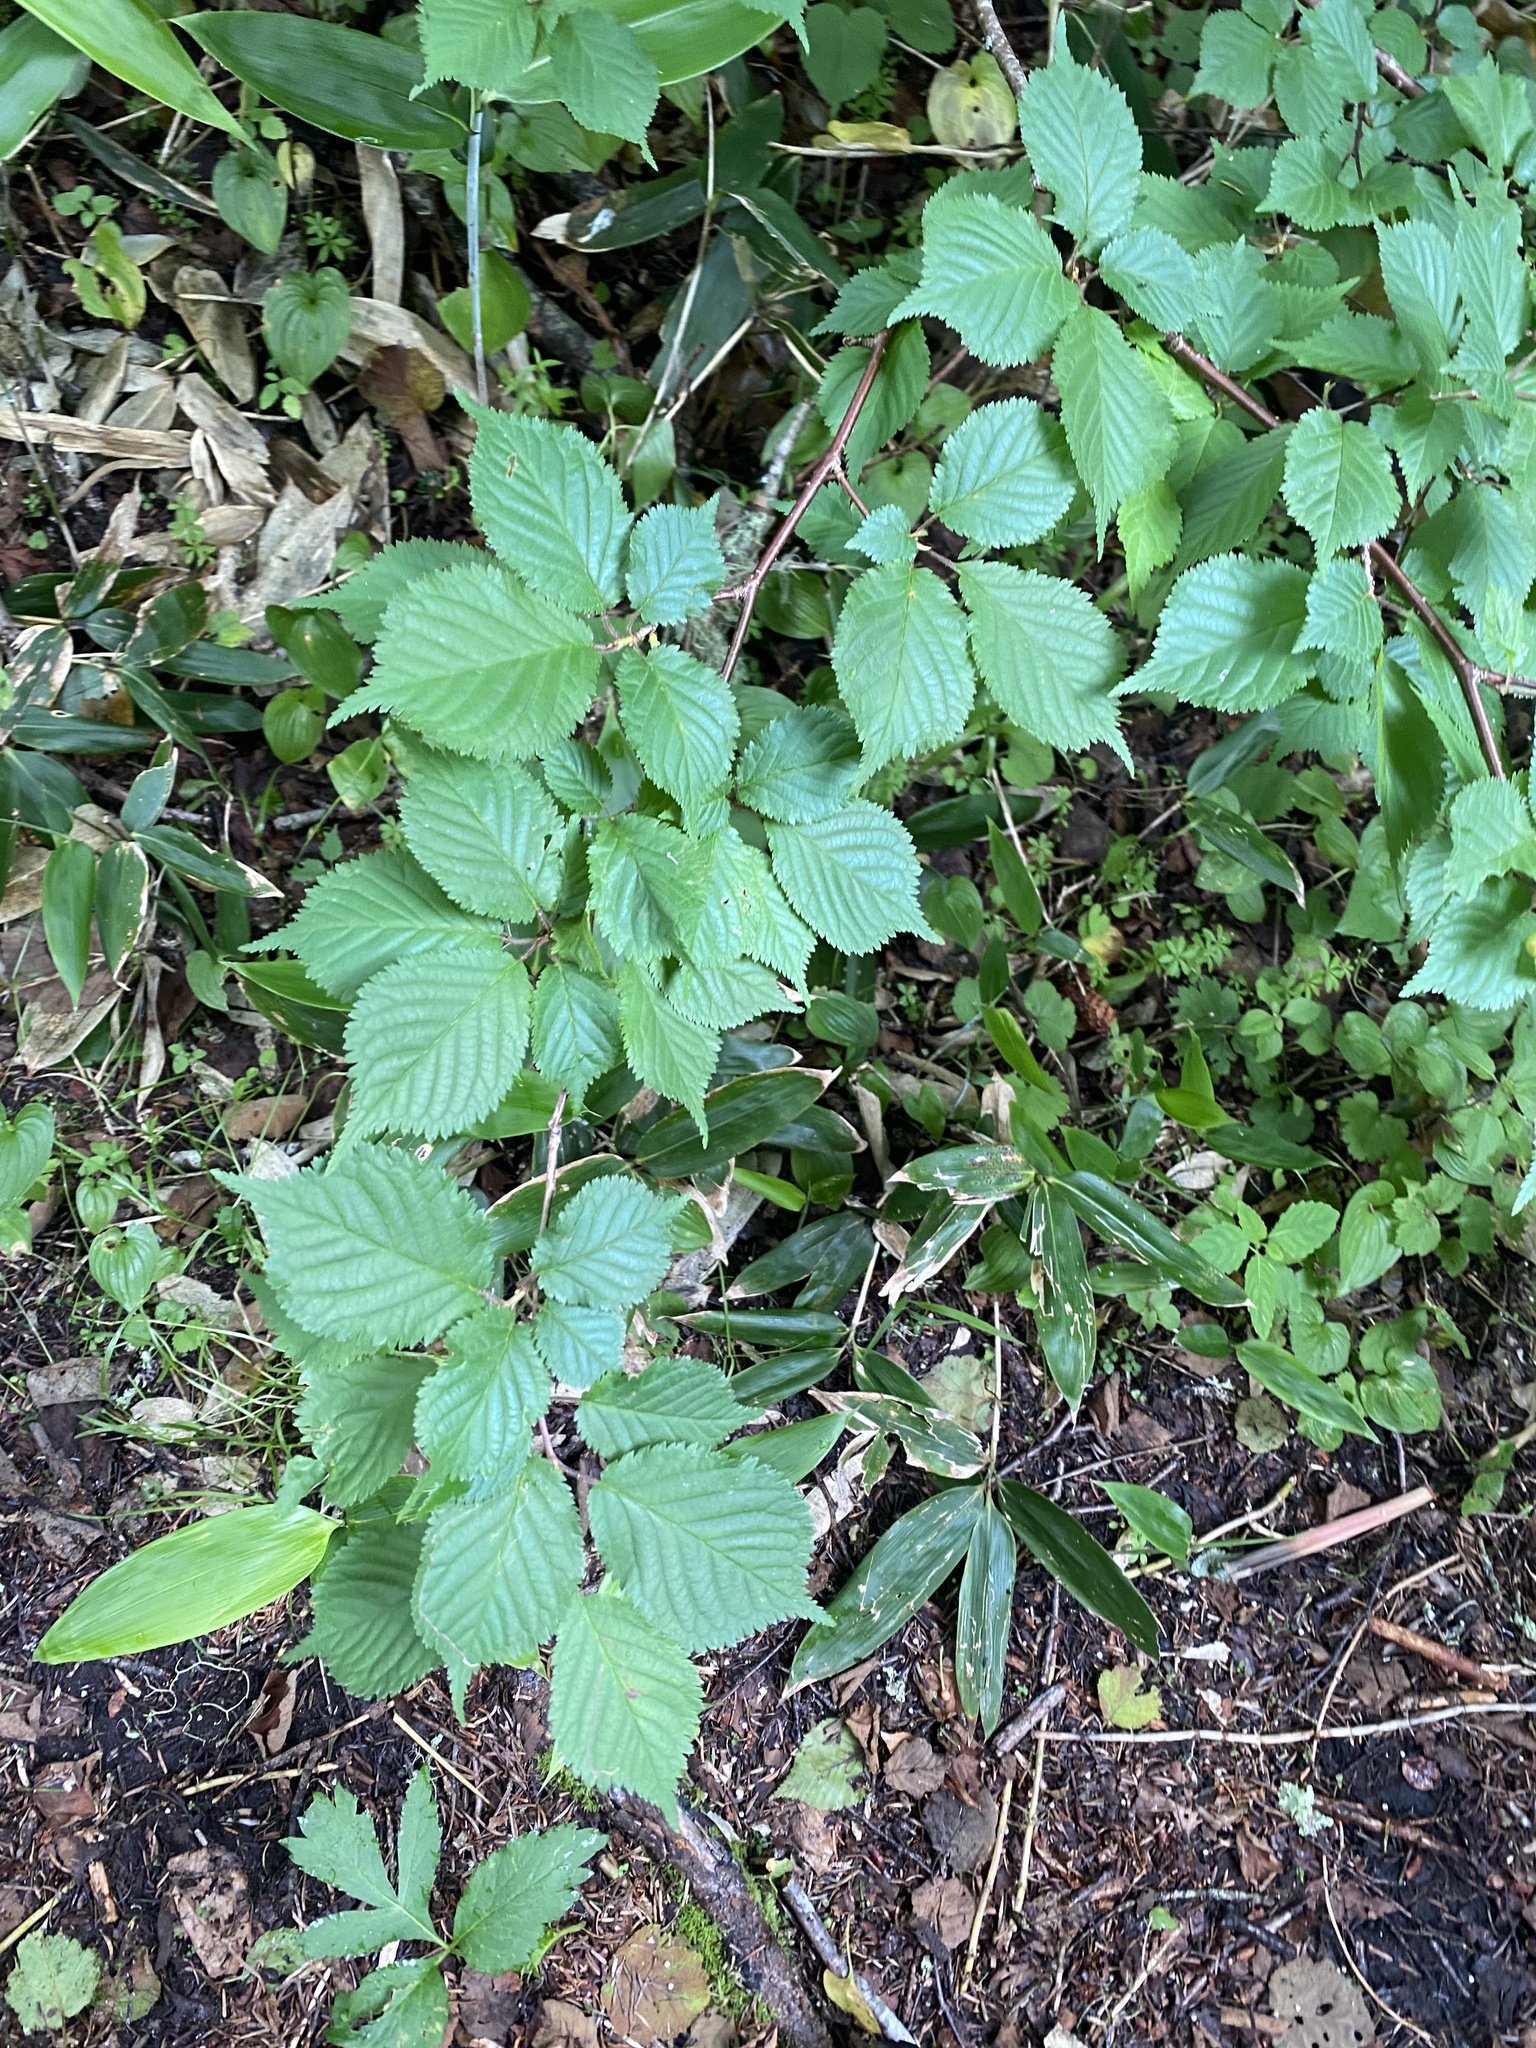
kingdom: Plantae
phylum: Tracheophyta
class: Magnoliopsida
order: Rosales
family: Ulmaceae
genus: Ulmus
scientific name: Ulmus davidiana
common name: Japanese elm
